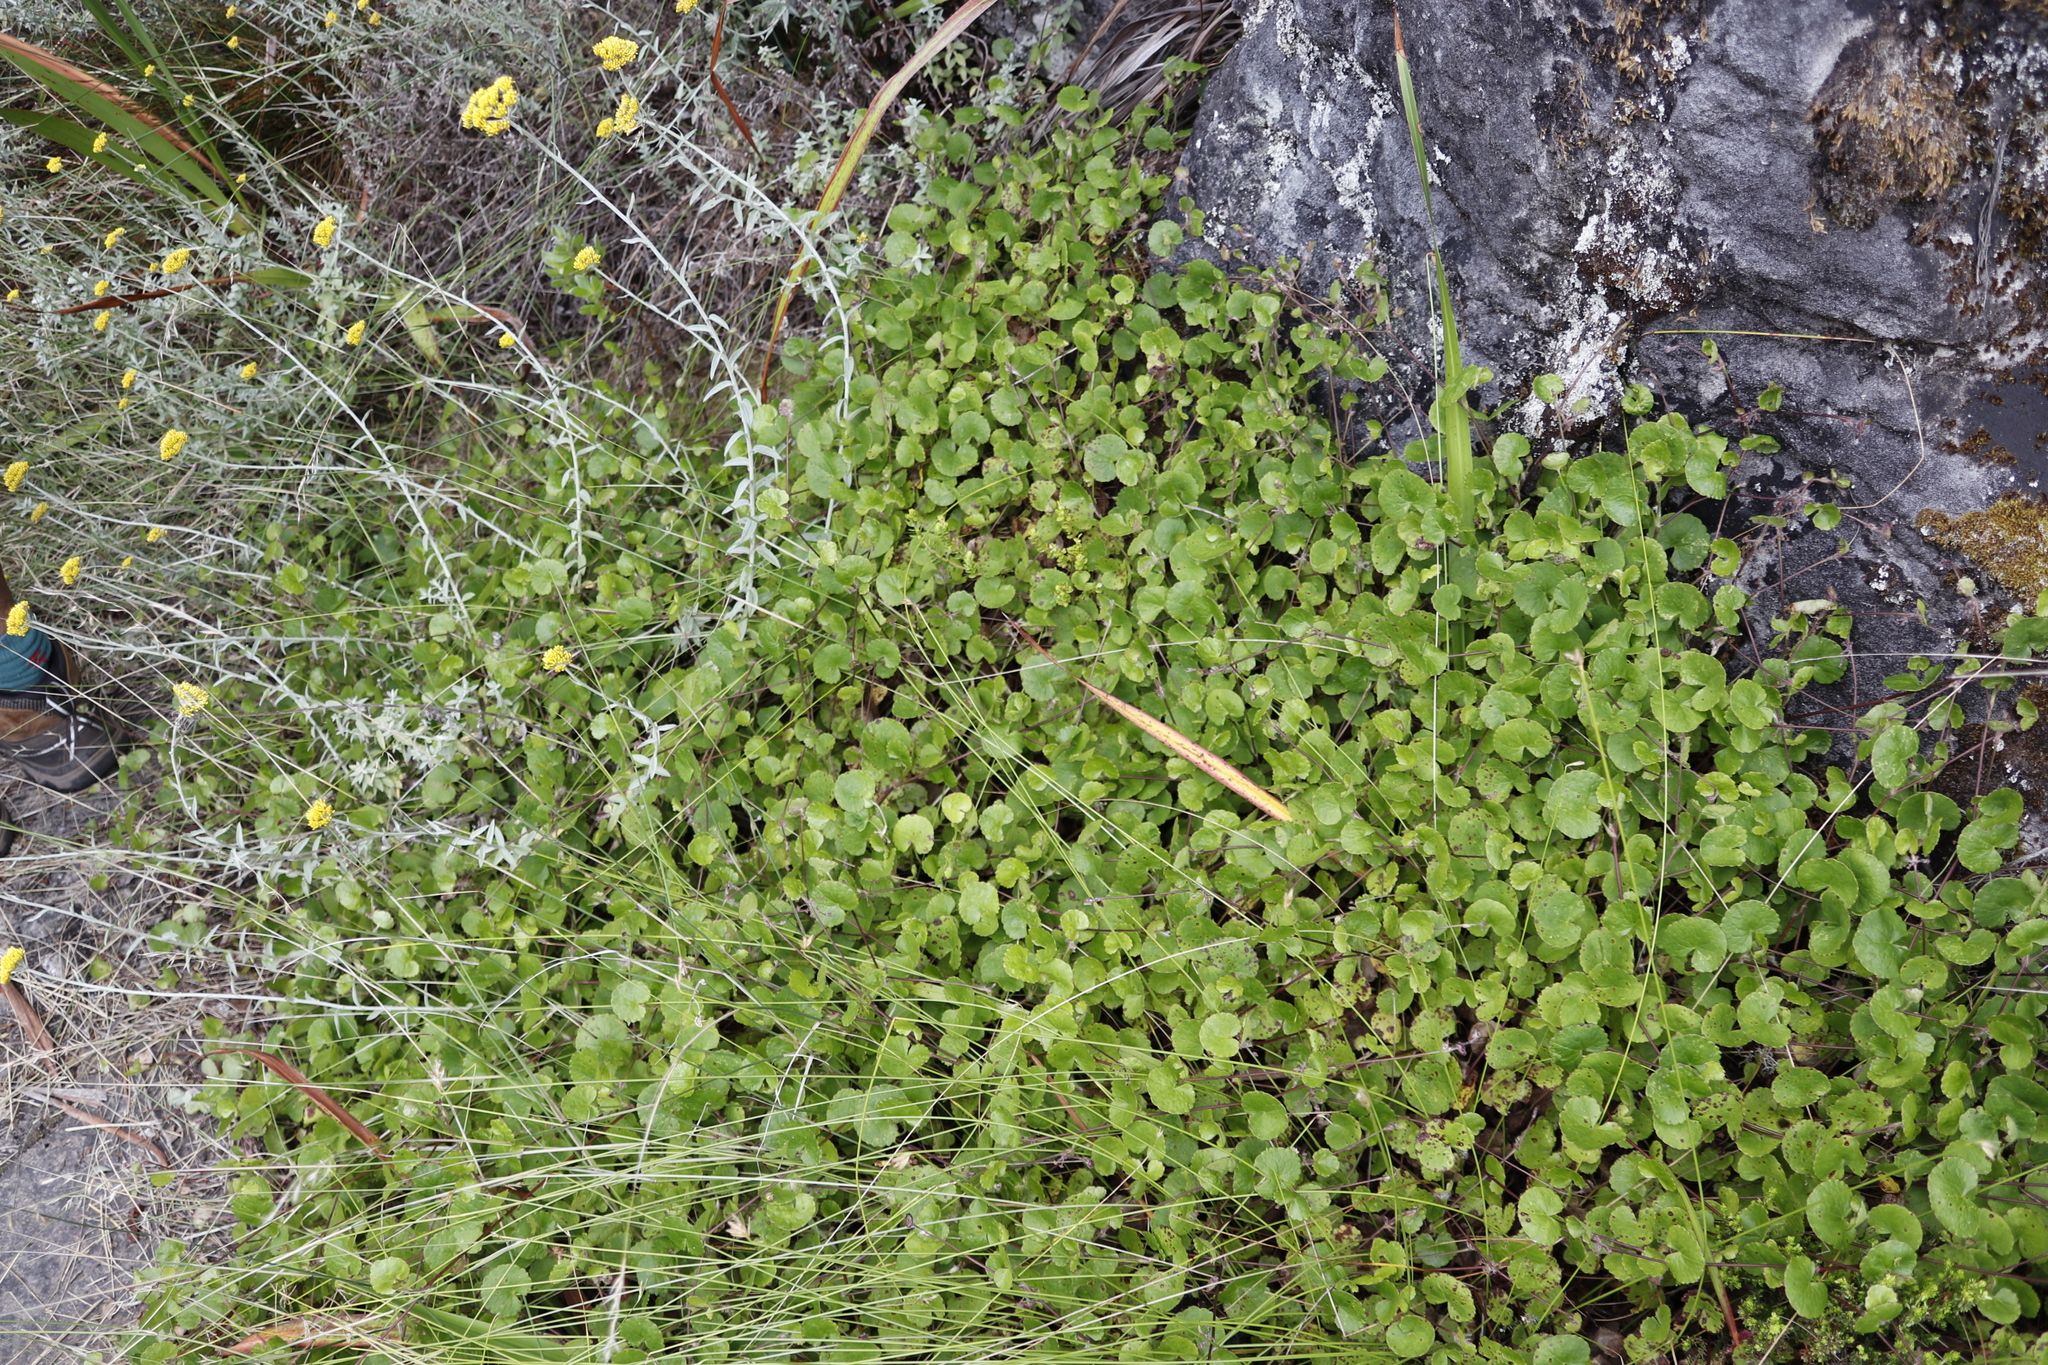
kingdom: Plantae
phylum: Tracheophyta
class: Magnoliopsida
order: Apiales
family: Apiaceae
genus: Centella
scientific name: Centella eriantha
